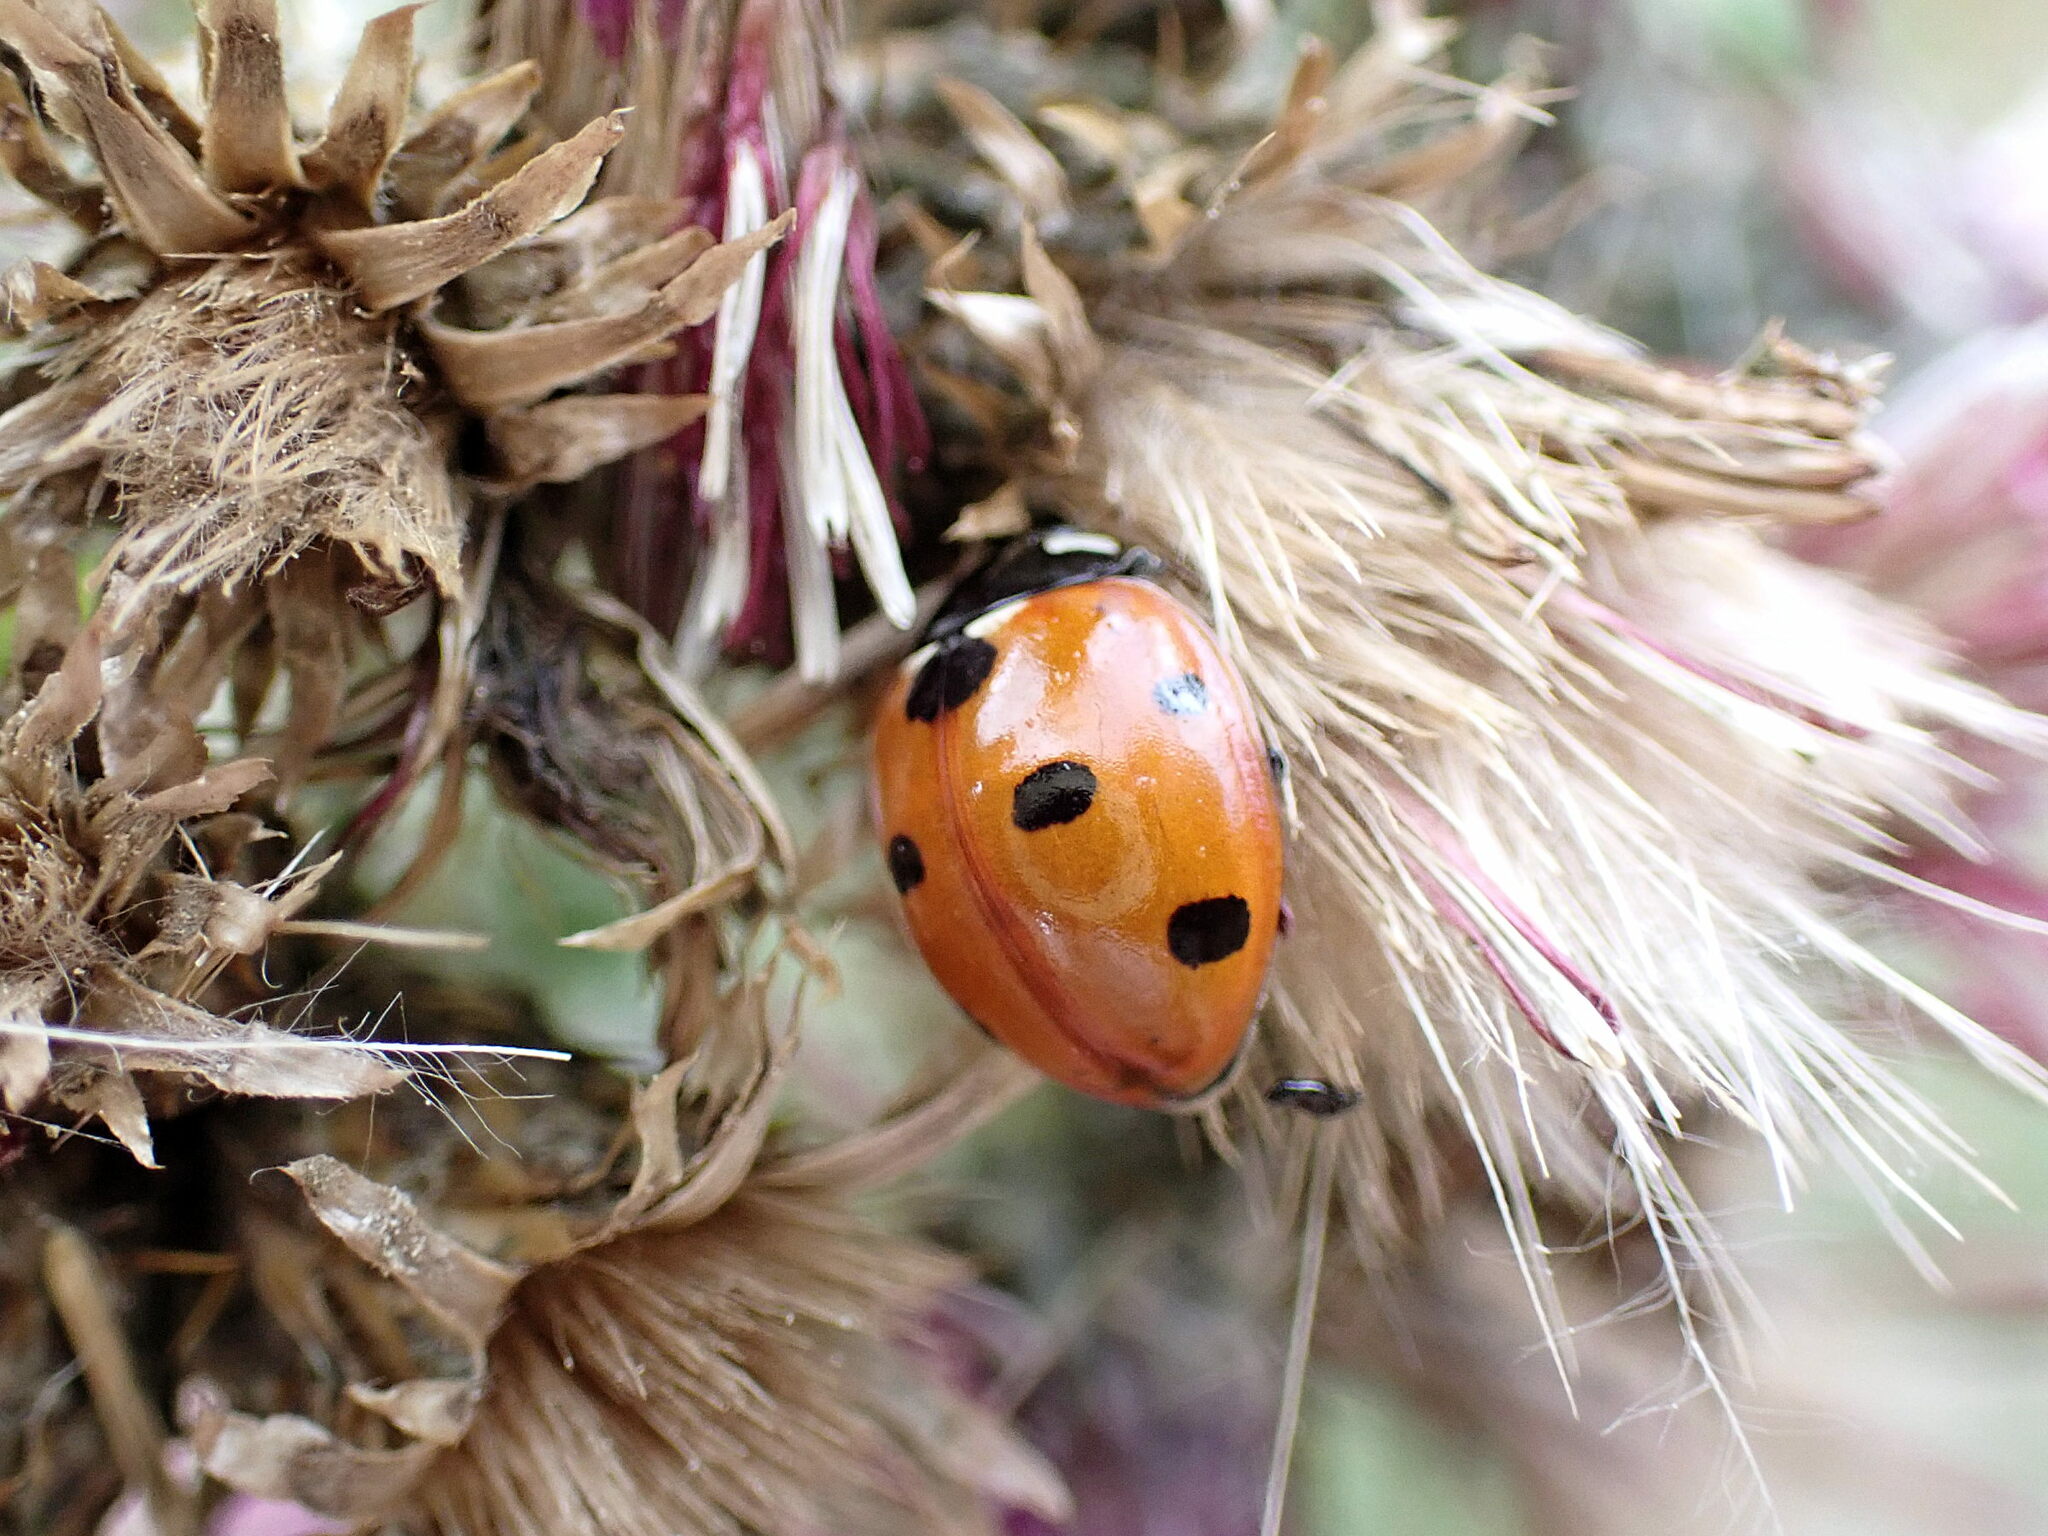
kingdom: Animalia
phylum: Arthropoda
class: Insecta
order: Coleoptera
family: Coccinellidae
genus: Coccinella
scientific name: Coccinella septempunctata
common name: Sevenspotted lady beetle
